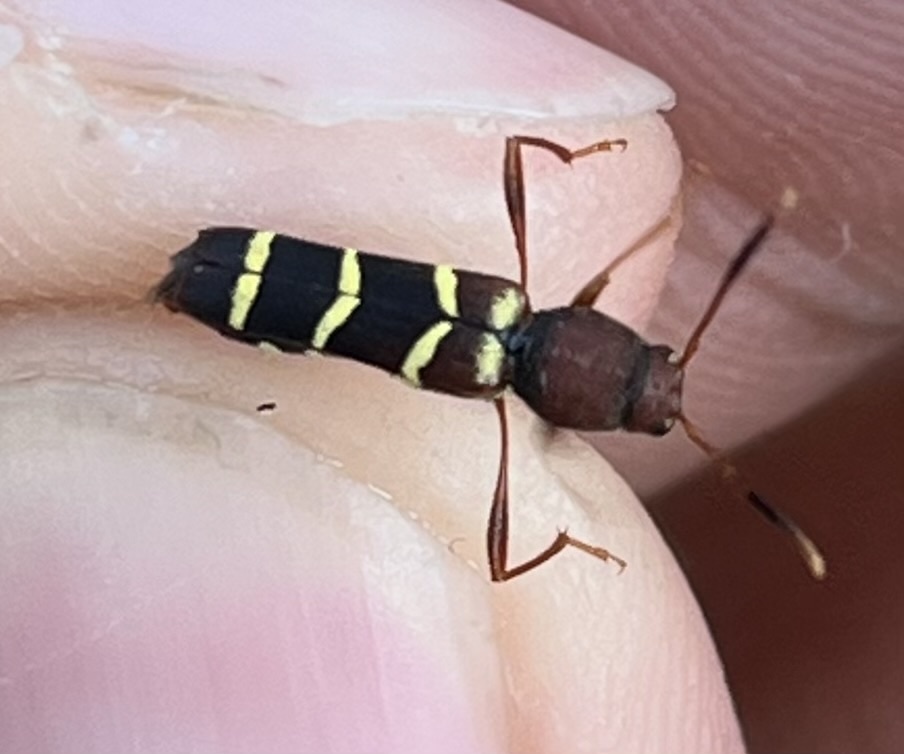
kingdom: Animalia
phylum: Arthropoda
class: Insecta
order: Coleoptera
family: Cerambycidae
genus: Neoclytus
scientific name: Neoclytus acuminatus
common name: Read-headed ash borer
